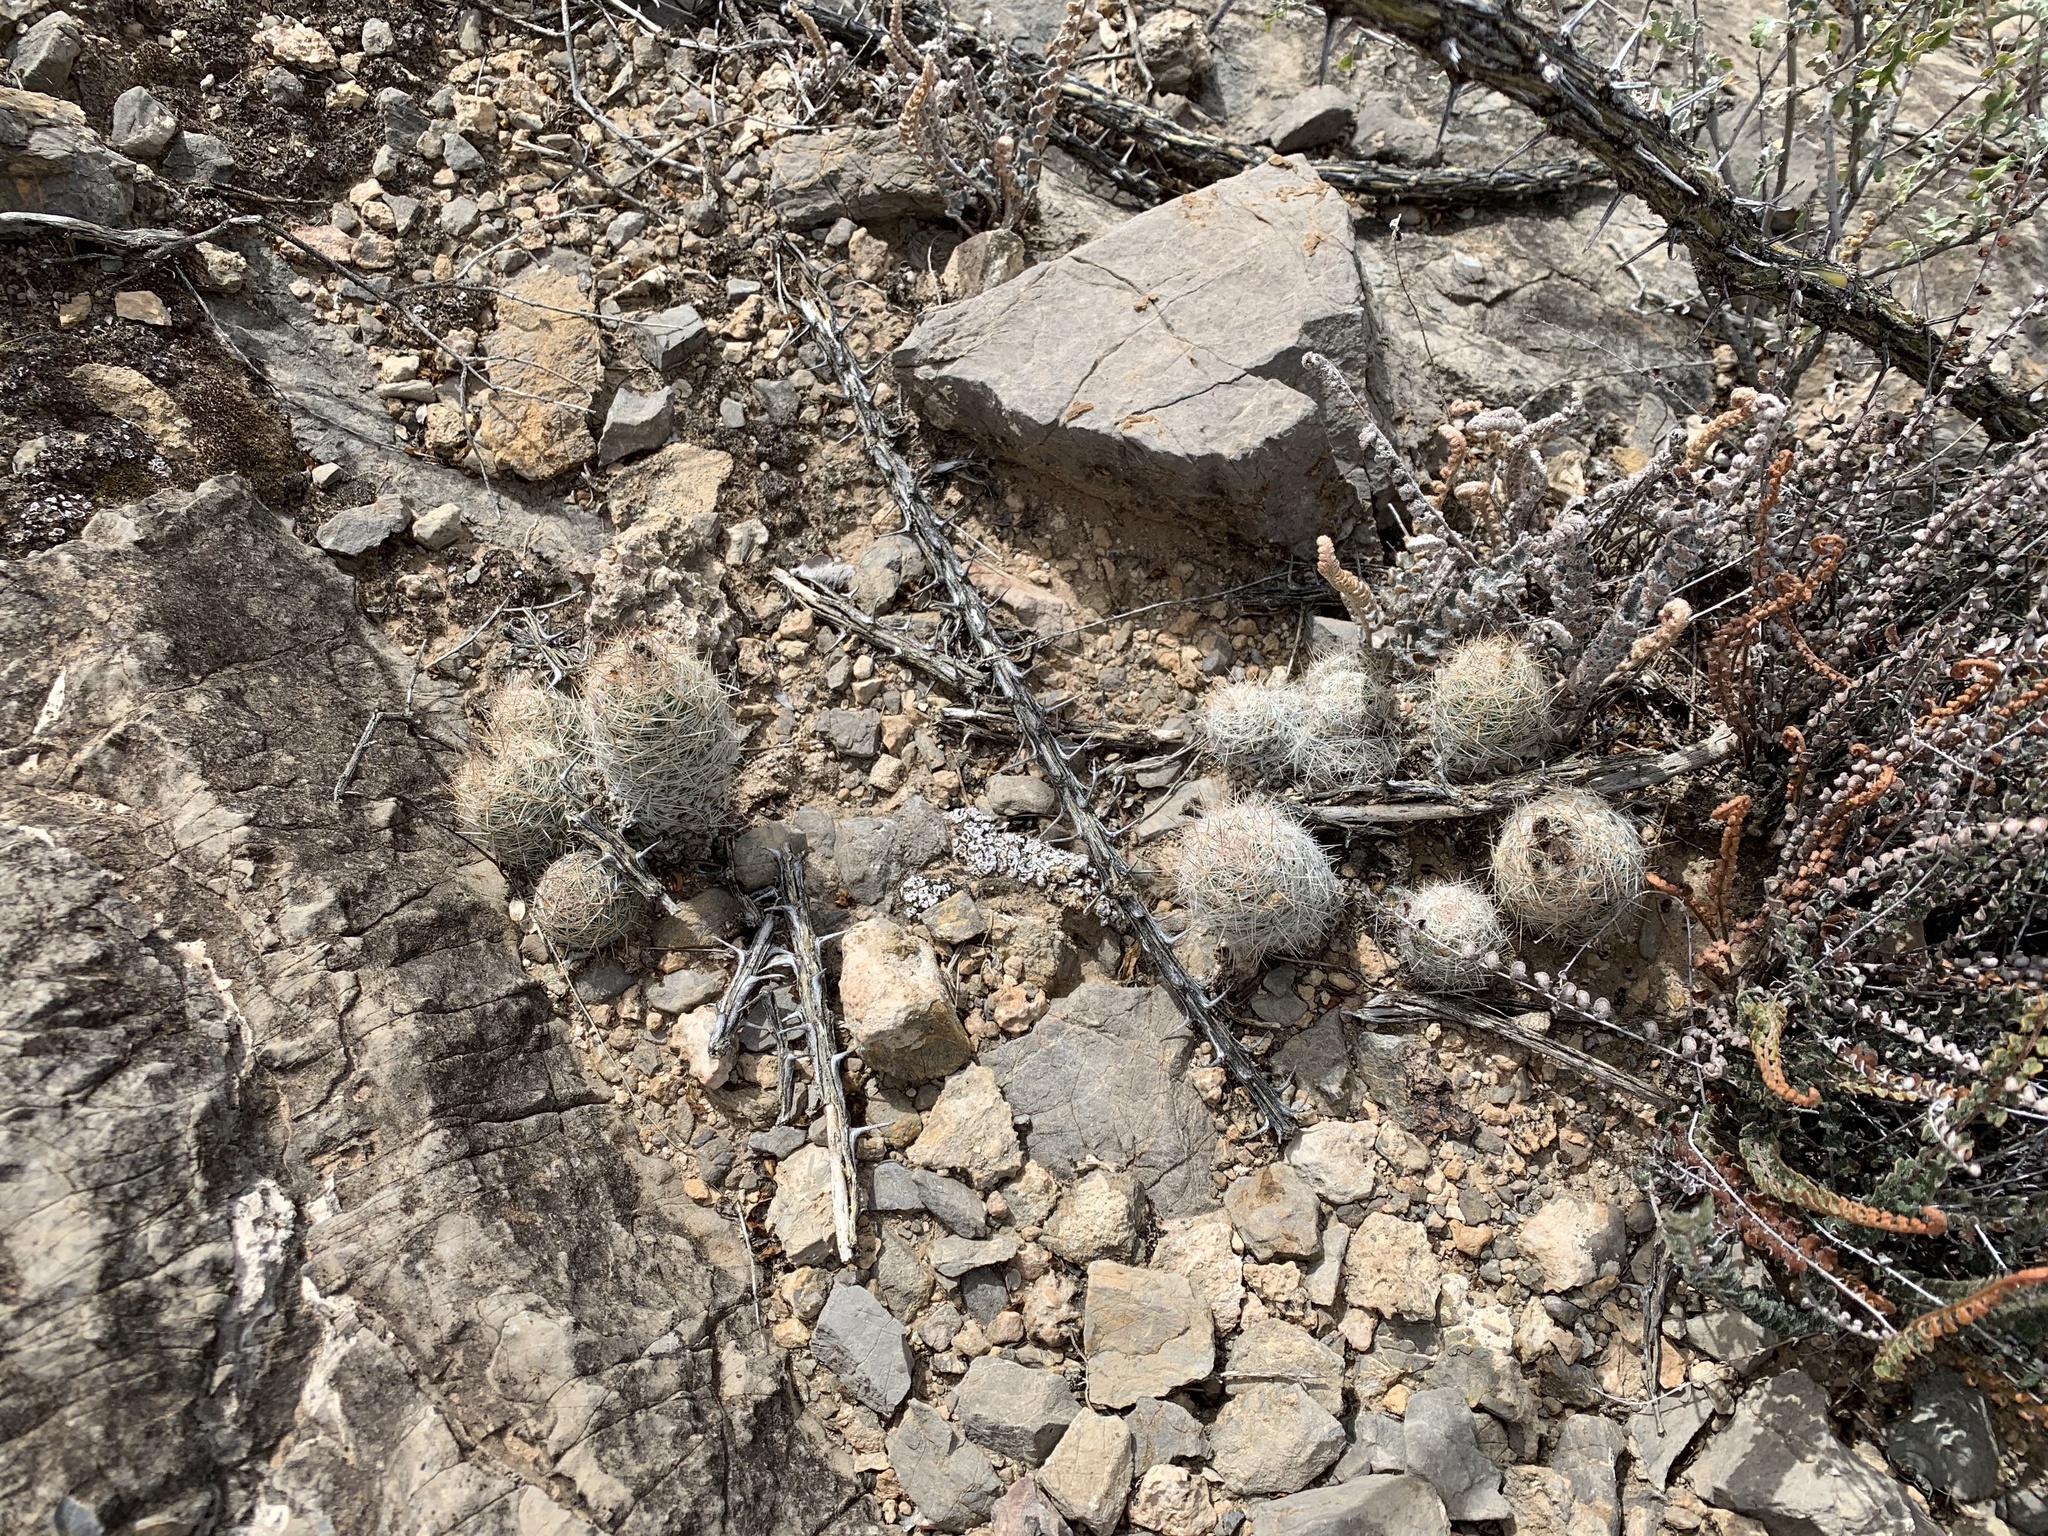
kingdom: Plantae
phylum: Tracheophyta
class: Magnoliopsida
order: Caryophyllales
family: Cactaceae
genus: Pelecyphora
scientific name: Pelecyphora tuberculosa
